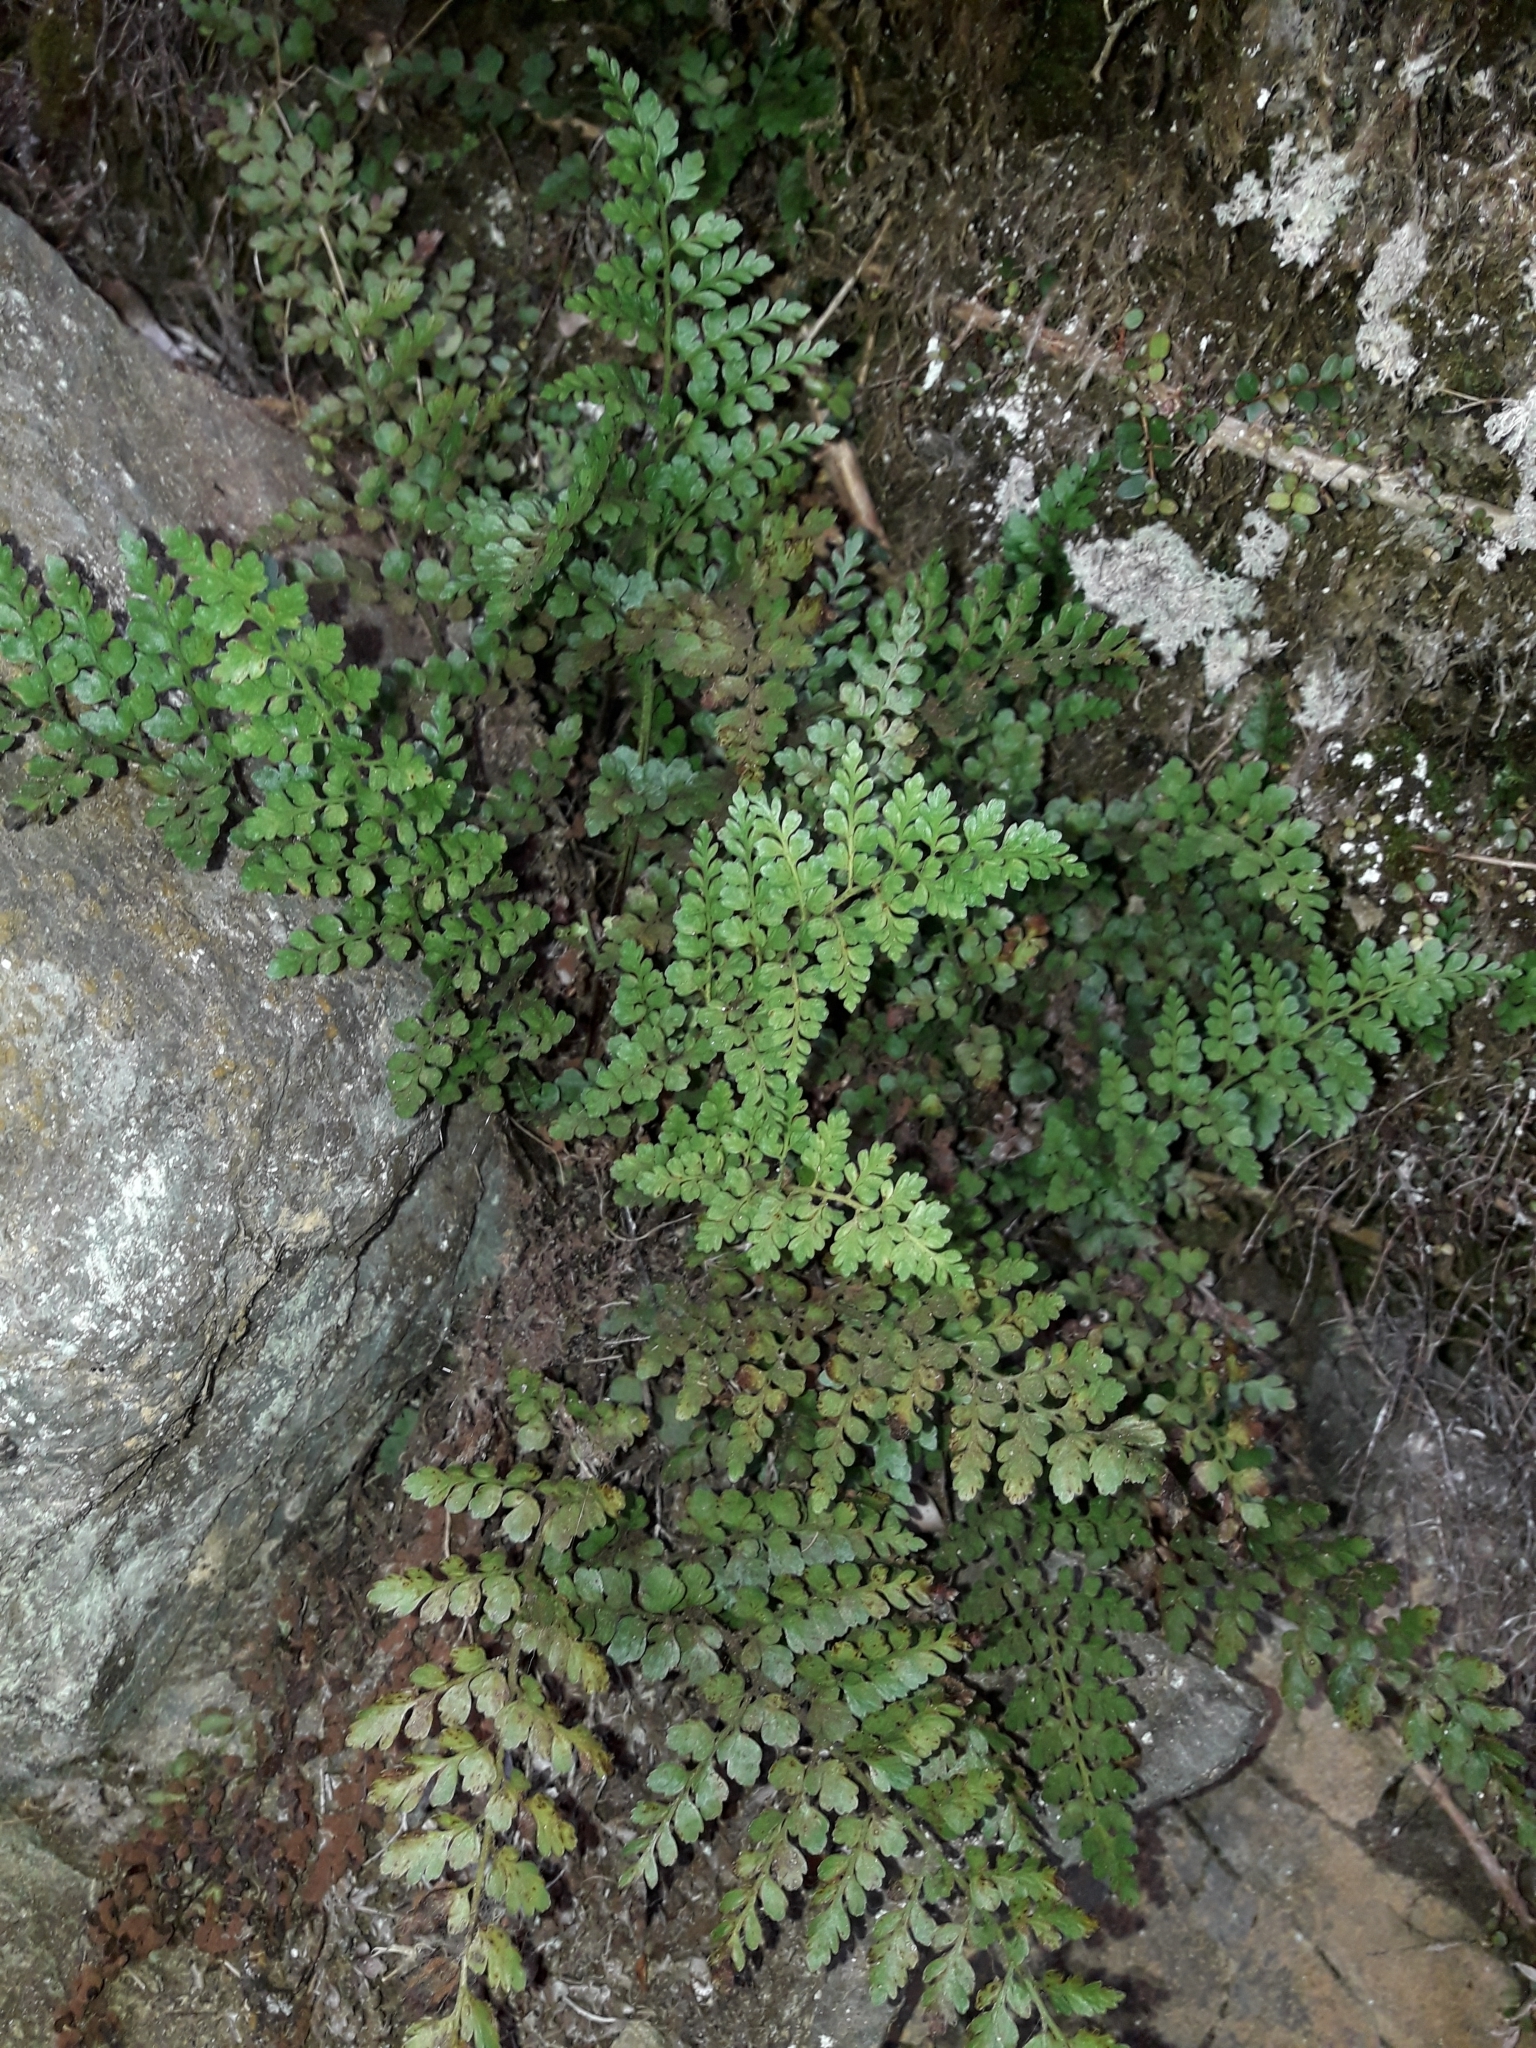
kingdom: Plantae
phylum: Tracheophyta
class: Polypodiopsida
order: Polypodiales
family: Aspleniaceae
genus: Asplenium
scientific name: Asplenium hookerianum
